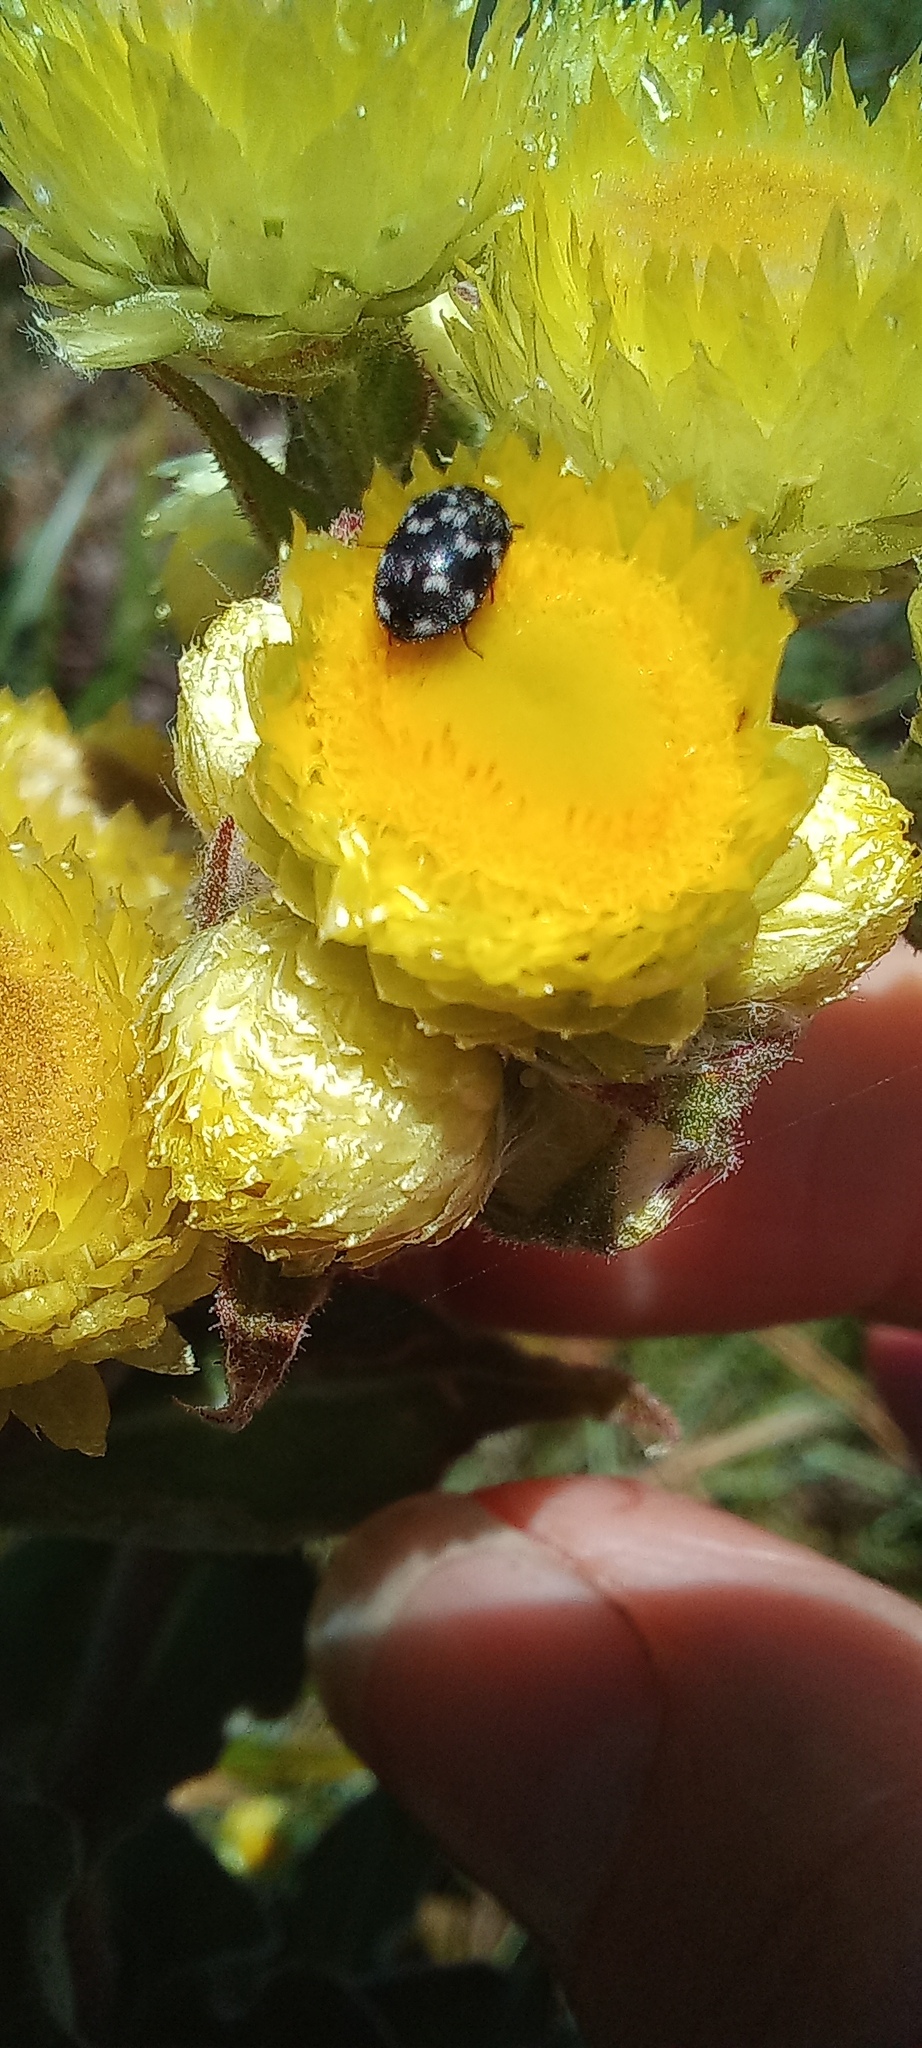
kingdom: Plantae
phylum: Tracheophyta
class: Magnoliopsida
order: Asterales
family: Asteraceae
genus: Helichrysum
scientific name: Helichrysum foetidum
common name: Stinking everlasting
